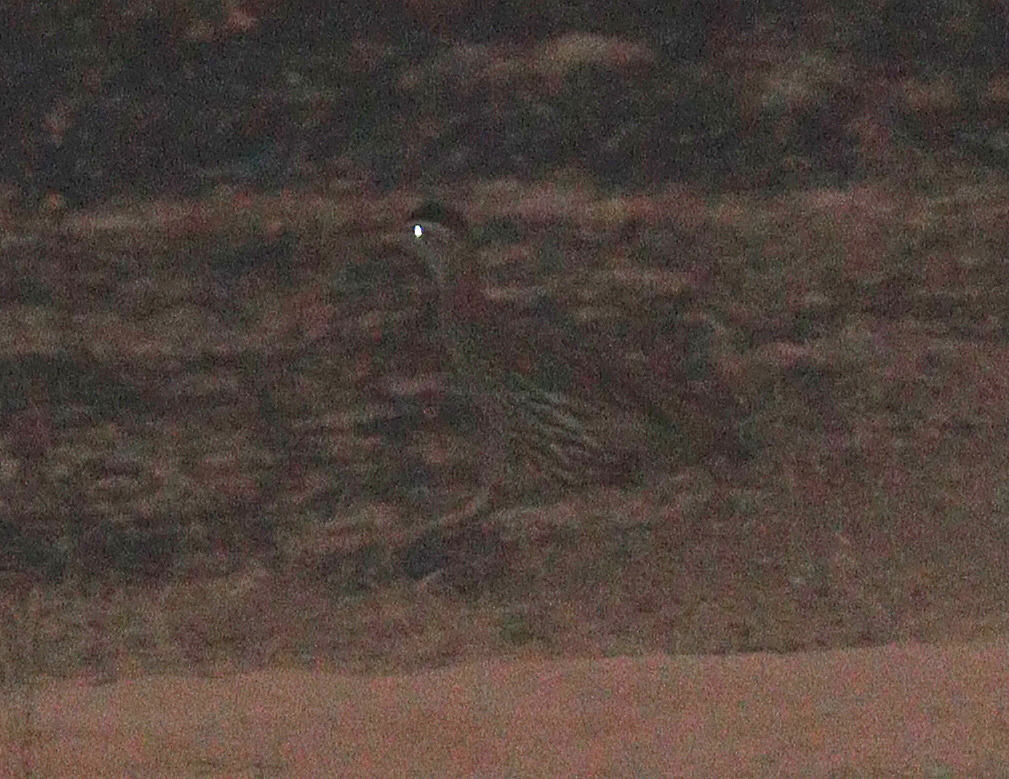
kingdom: Animalia
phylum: Chordata
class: Aves
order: Galliformes
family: Phasianidae
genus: Pternistis
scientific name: Pternistis bicalcaratus
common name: Double-spurred francolin
